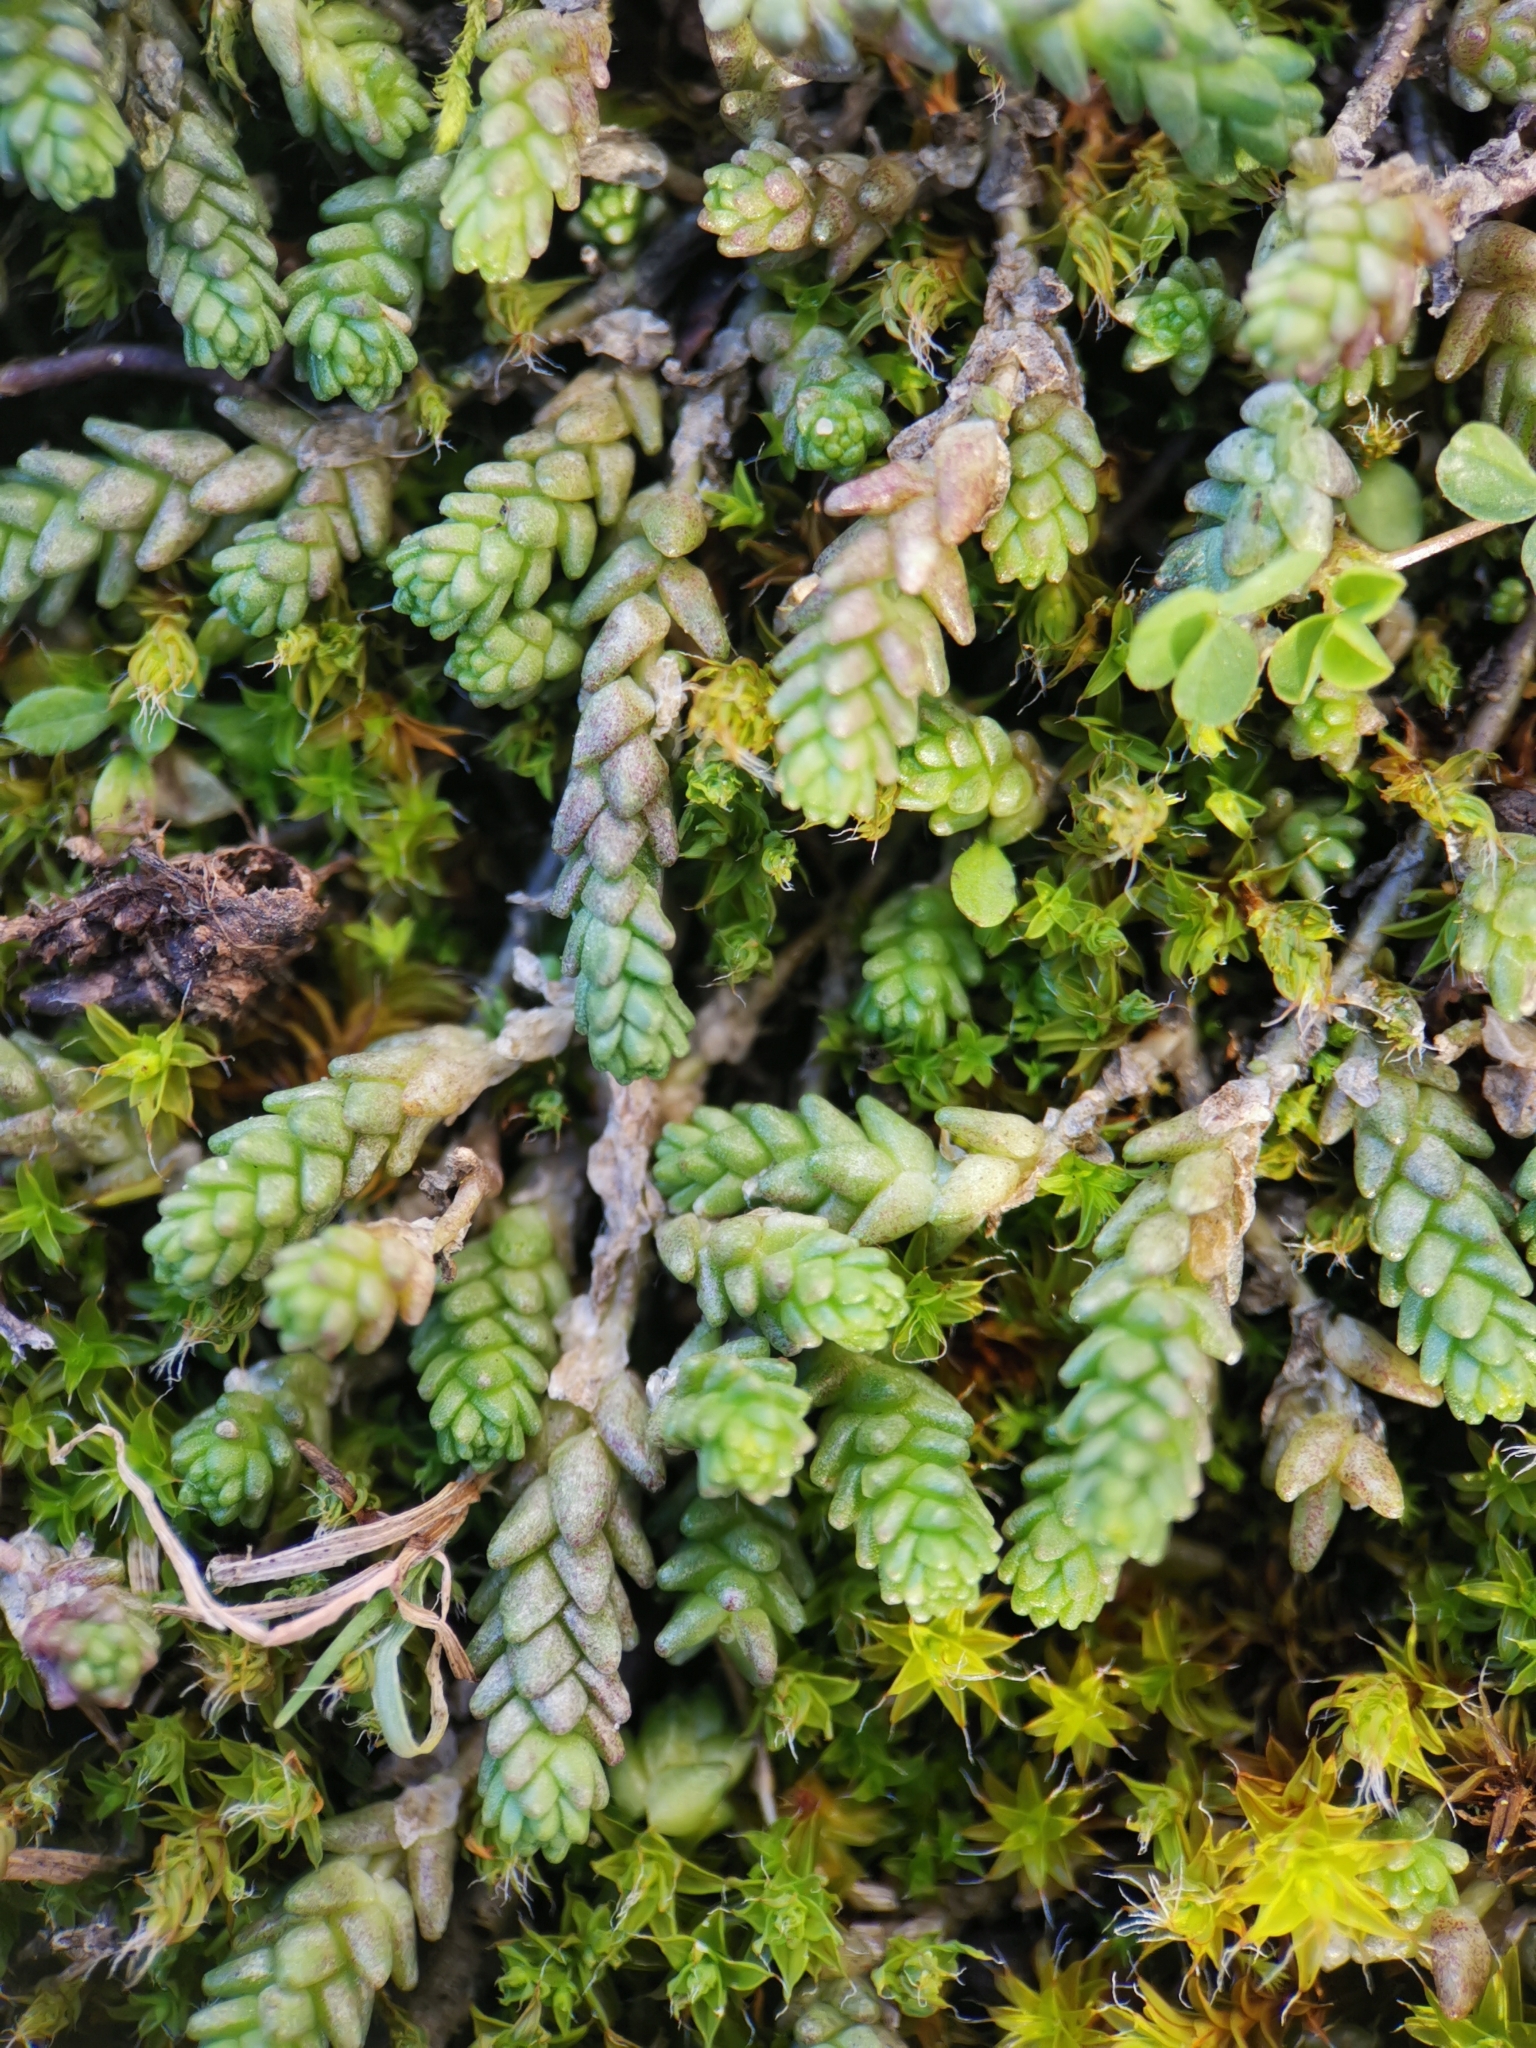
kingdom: Plantae
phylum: Tracheophyta
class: Magnoliopsida
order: Saxifragales
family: Crassulaceae
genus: Sedum
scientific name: Sedum acre
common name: Biting stonecrop
